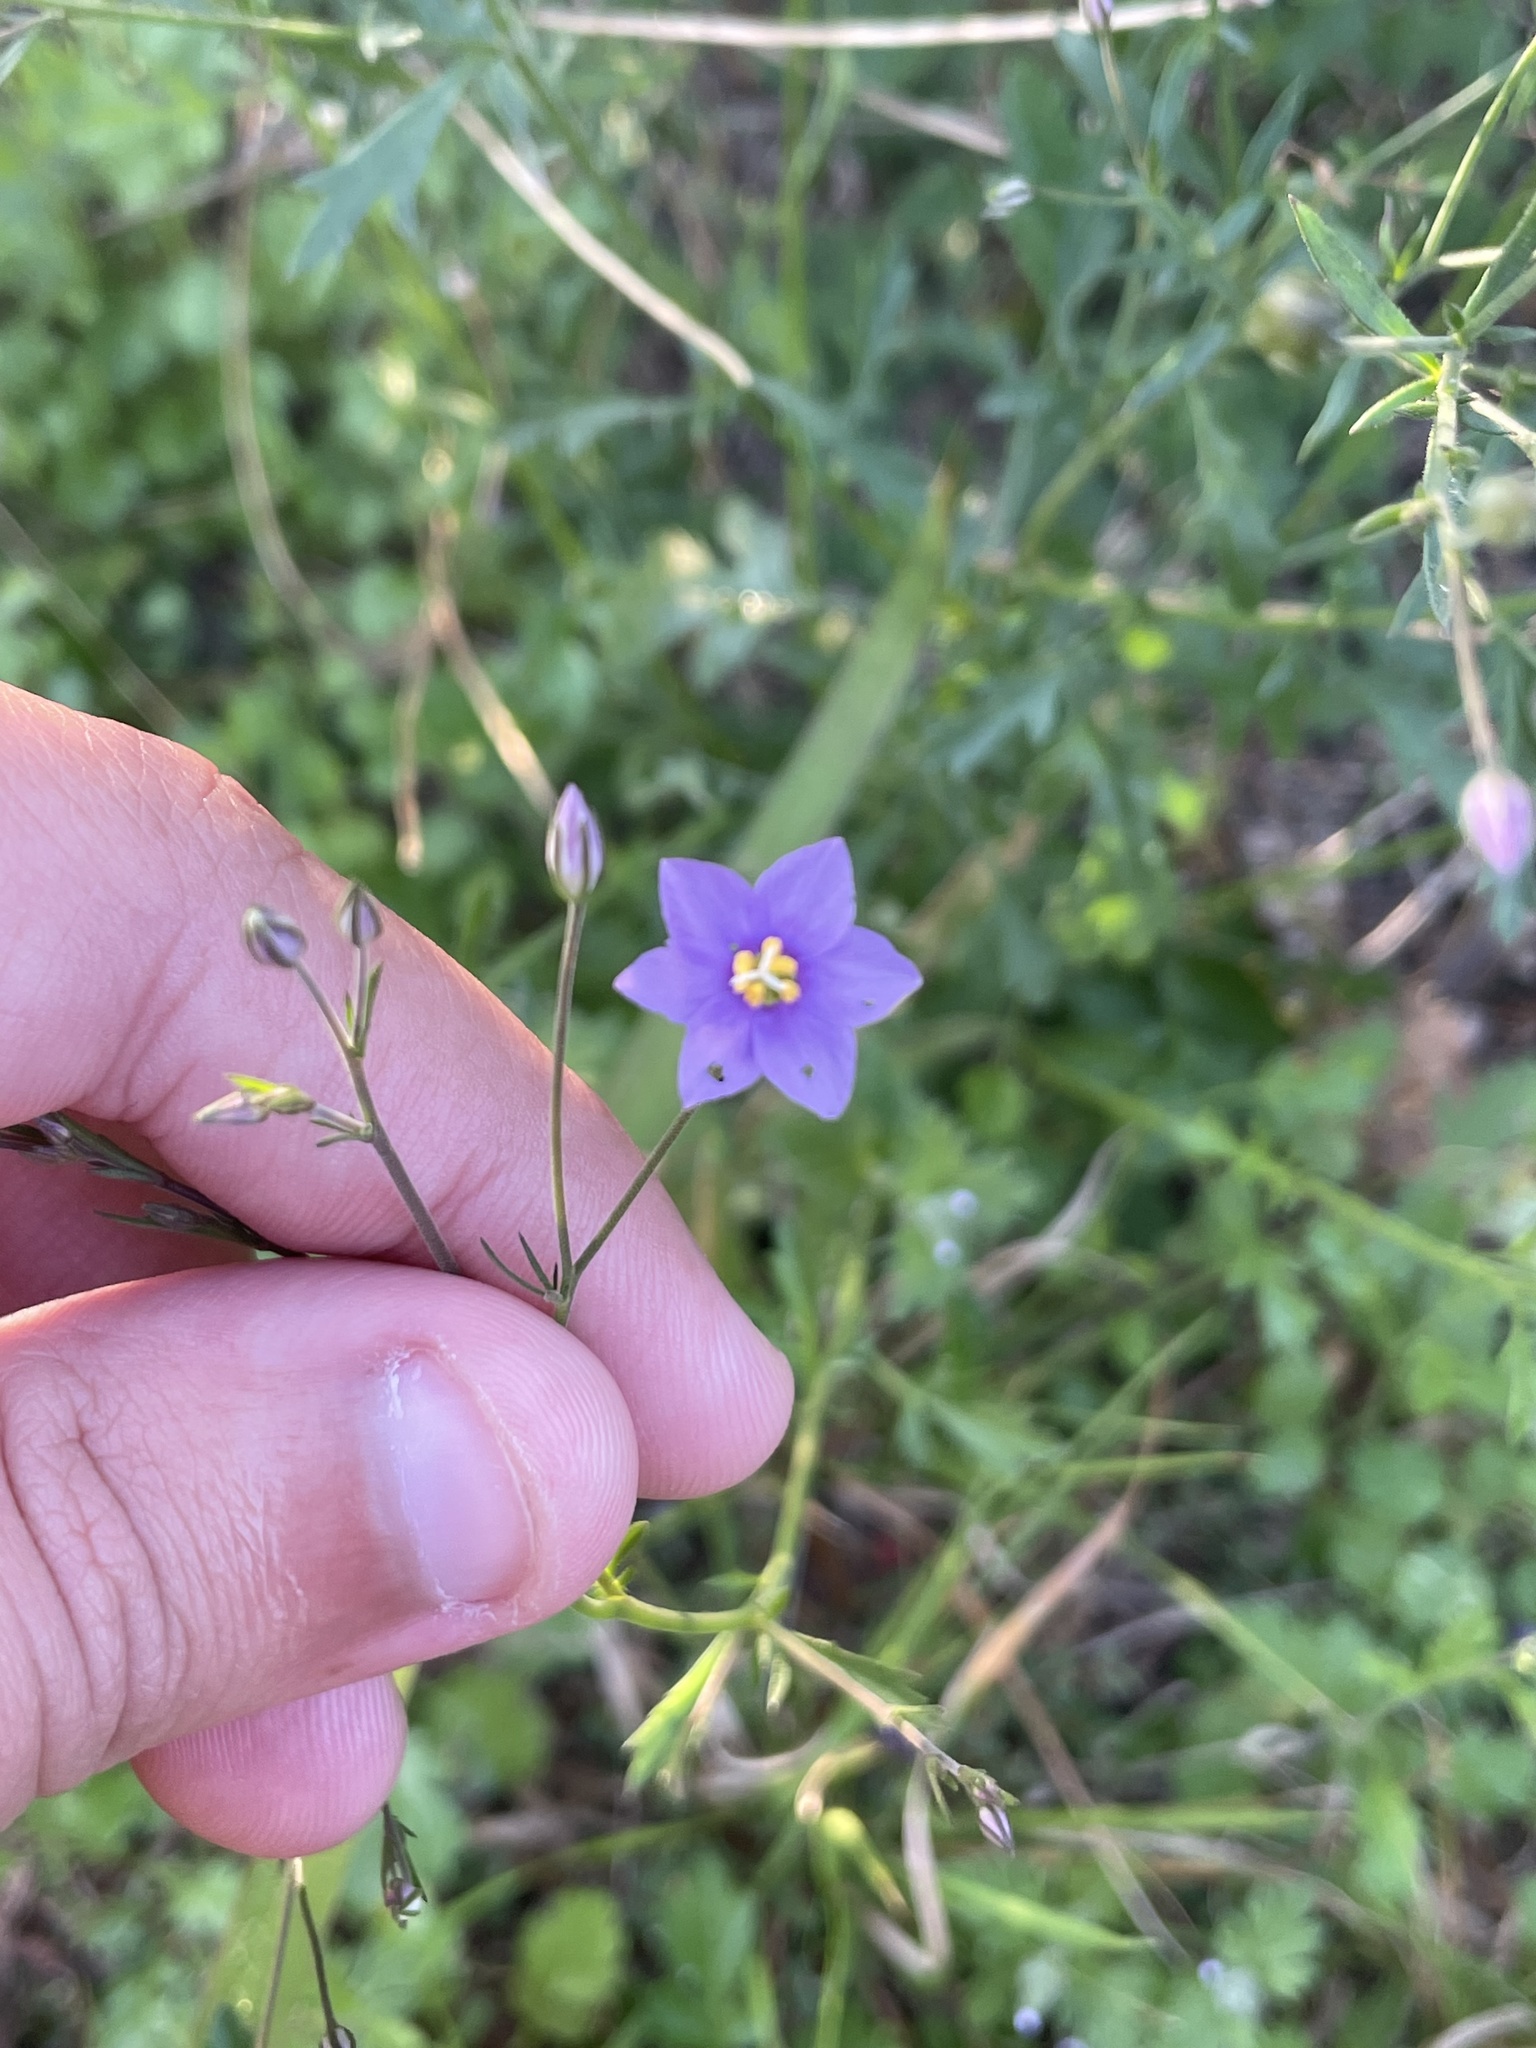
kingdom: Plantae
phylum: Tracheophyta
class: Magnoliopsida
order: Ericales
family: Polemoniaceae
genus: Giliastrum
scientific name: Giliastrum incisum
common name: Splitleaf gilia
